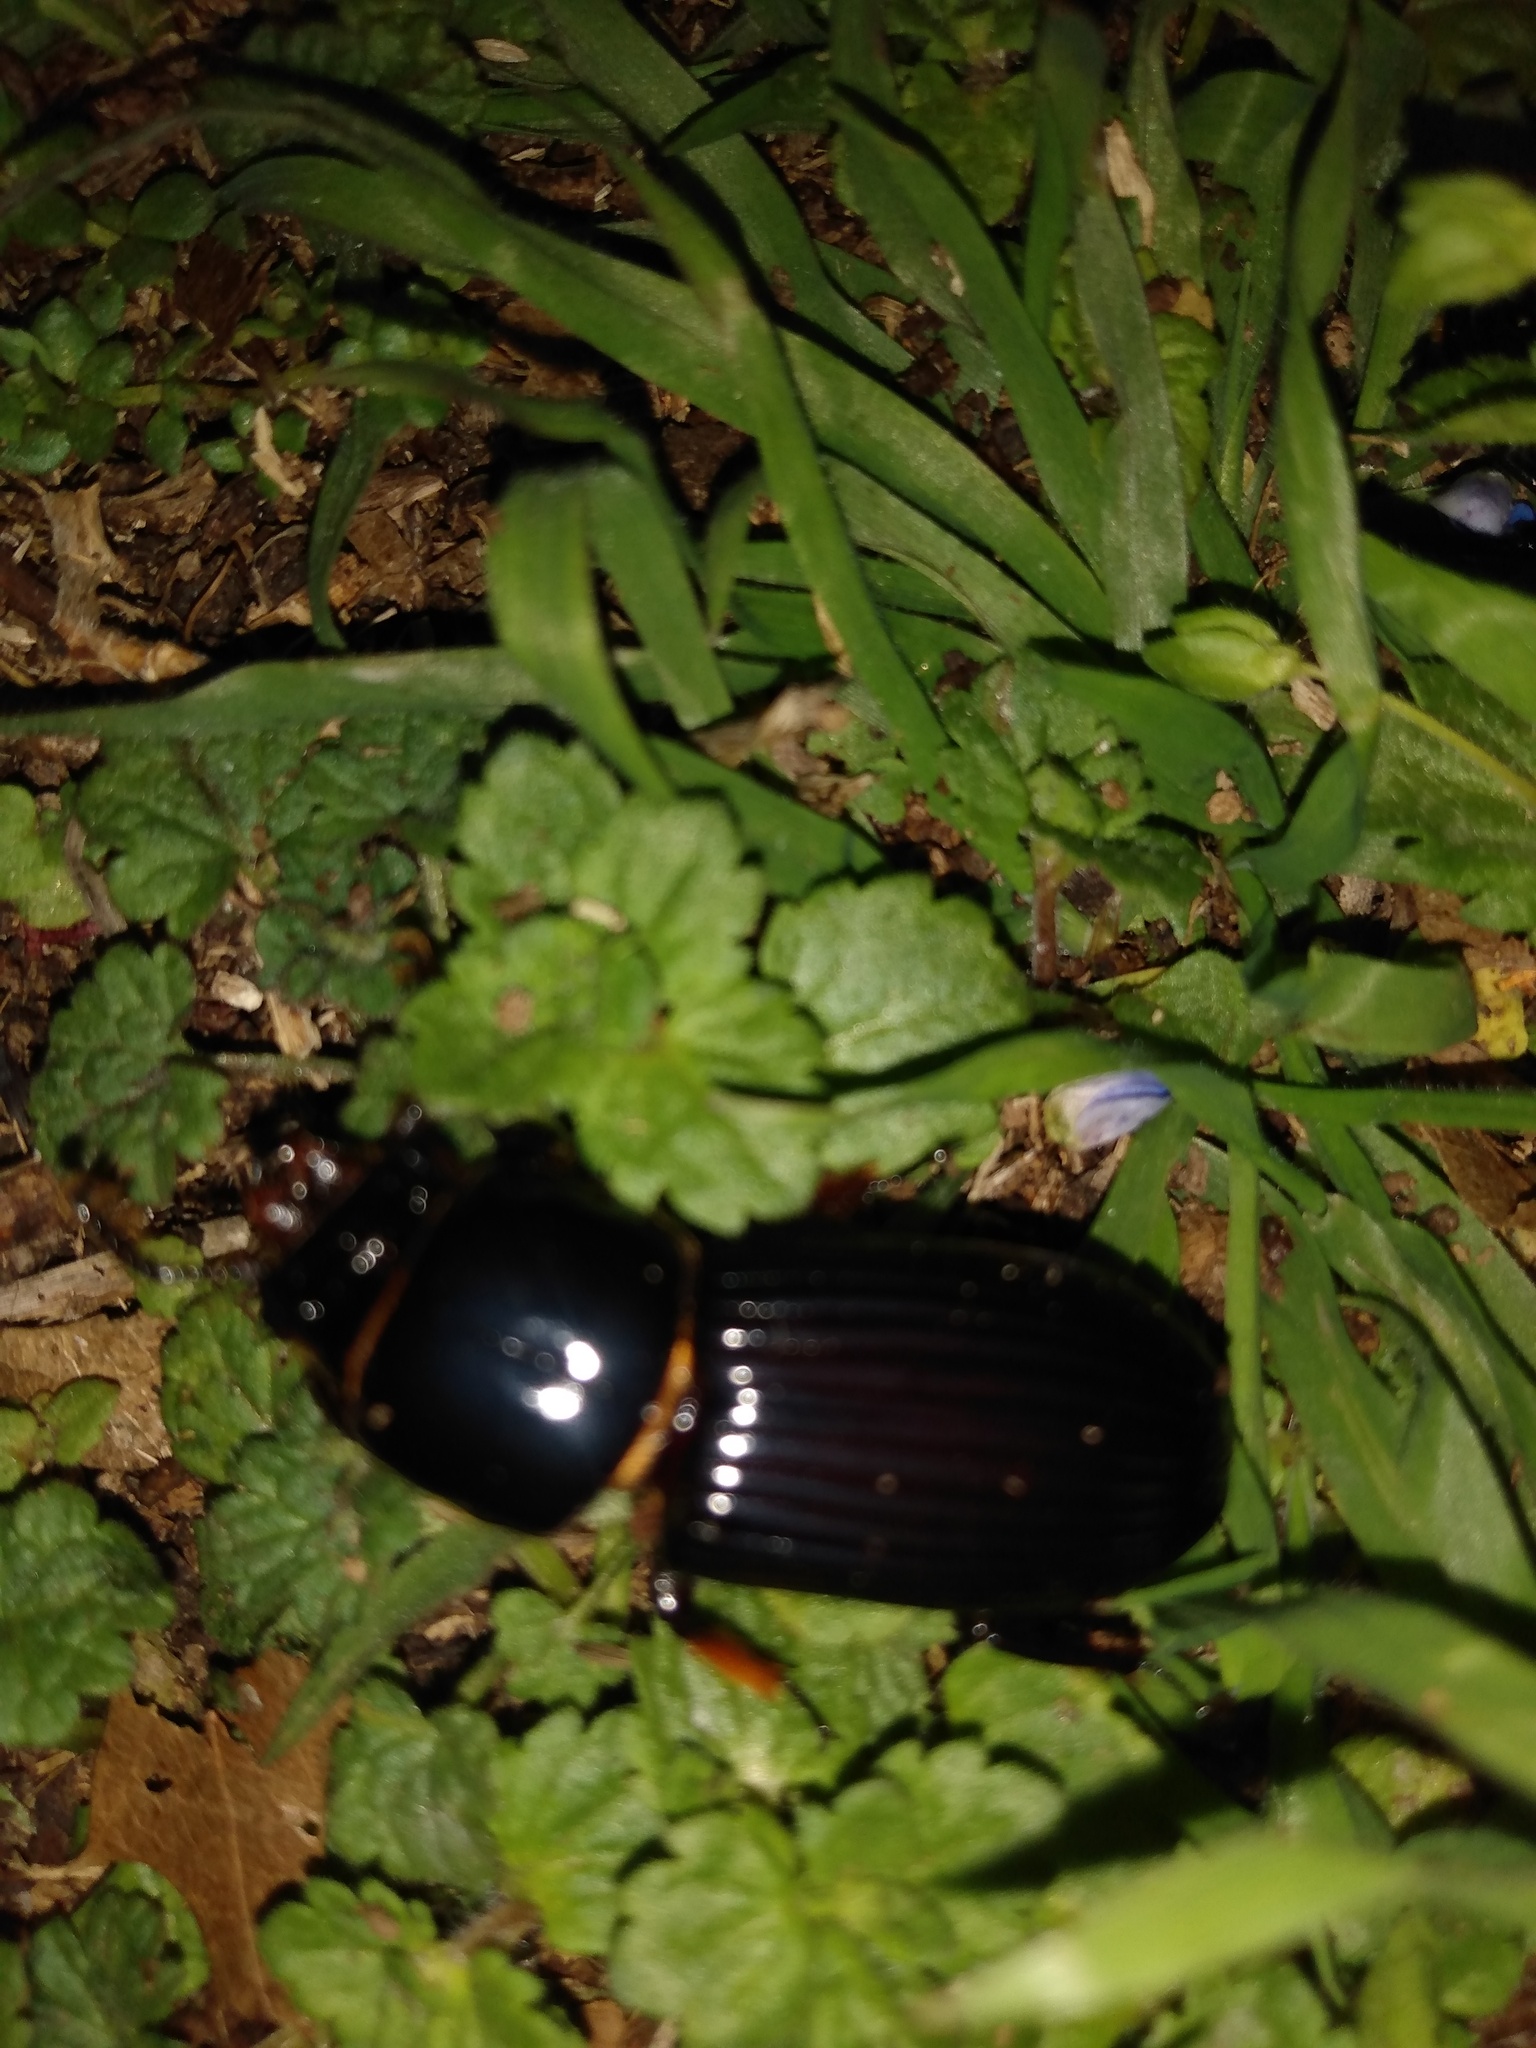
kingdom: Animalia
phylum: Arthropoda
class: Insecta
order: Coleoptera
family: Passalidae
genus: Odontotaenius
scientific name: Odontotaenius disjunctus
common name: Patent leather beetle
